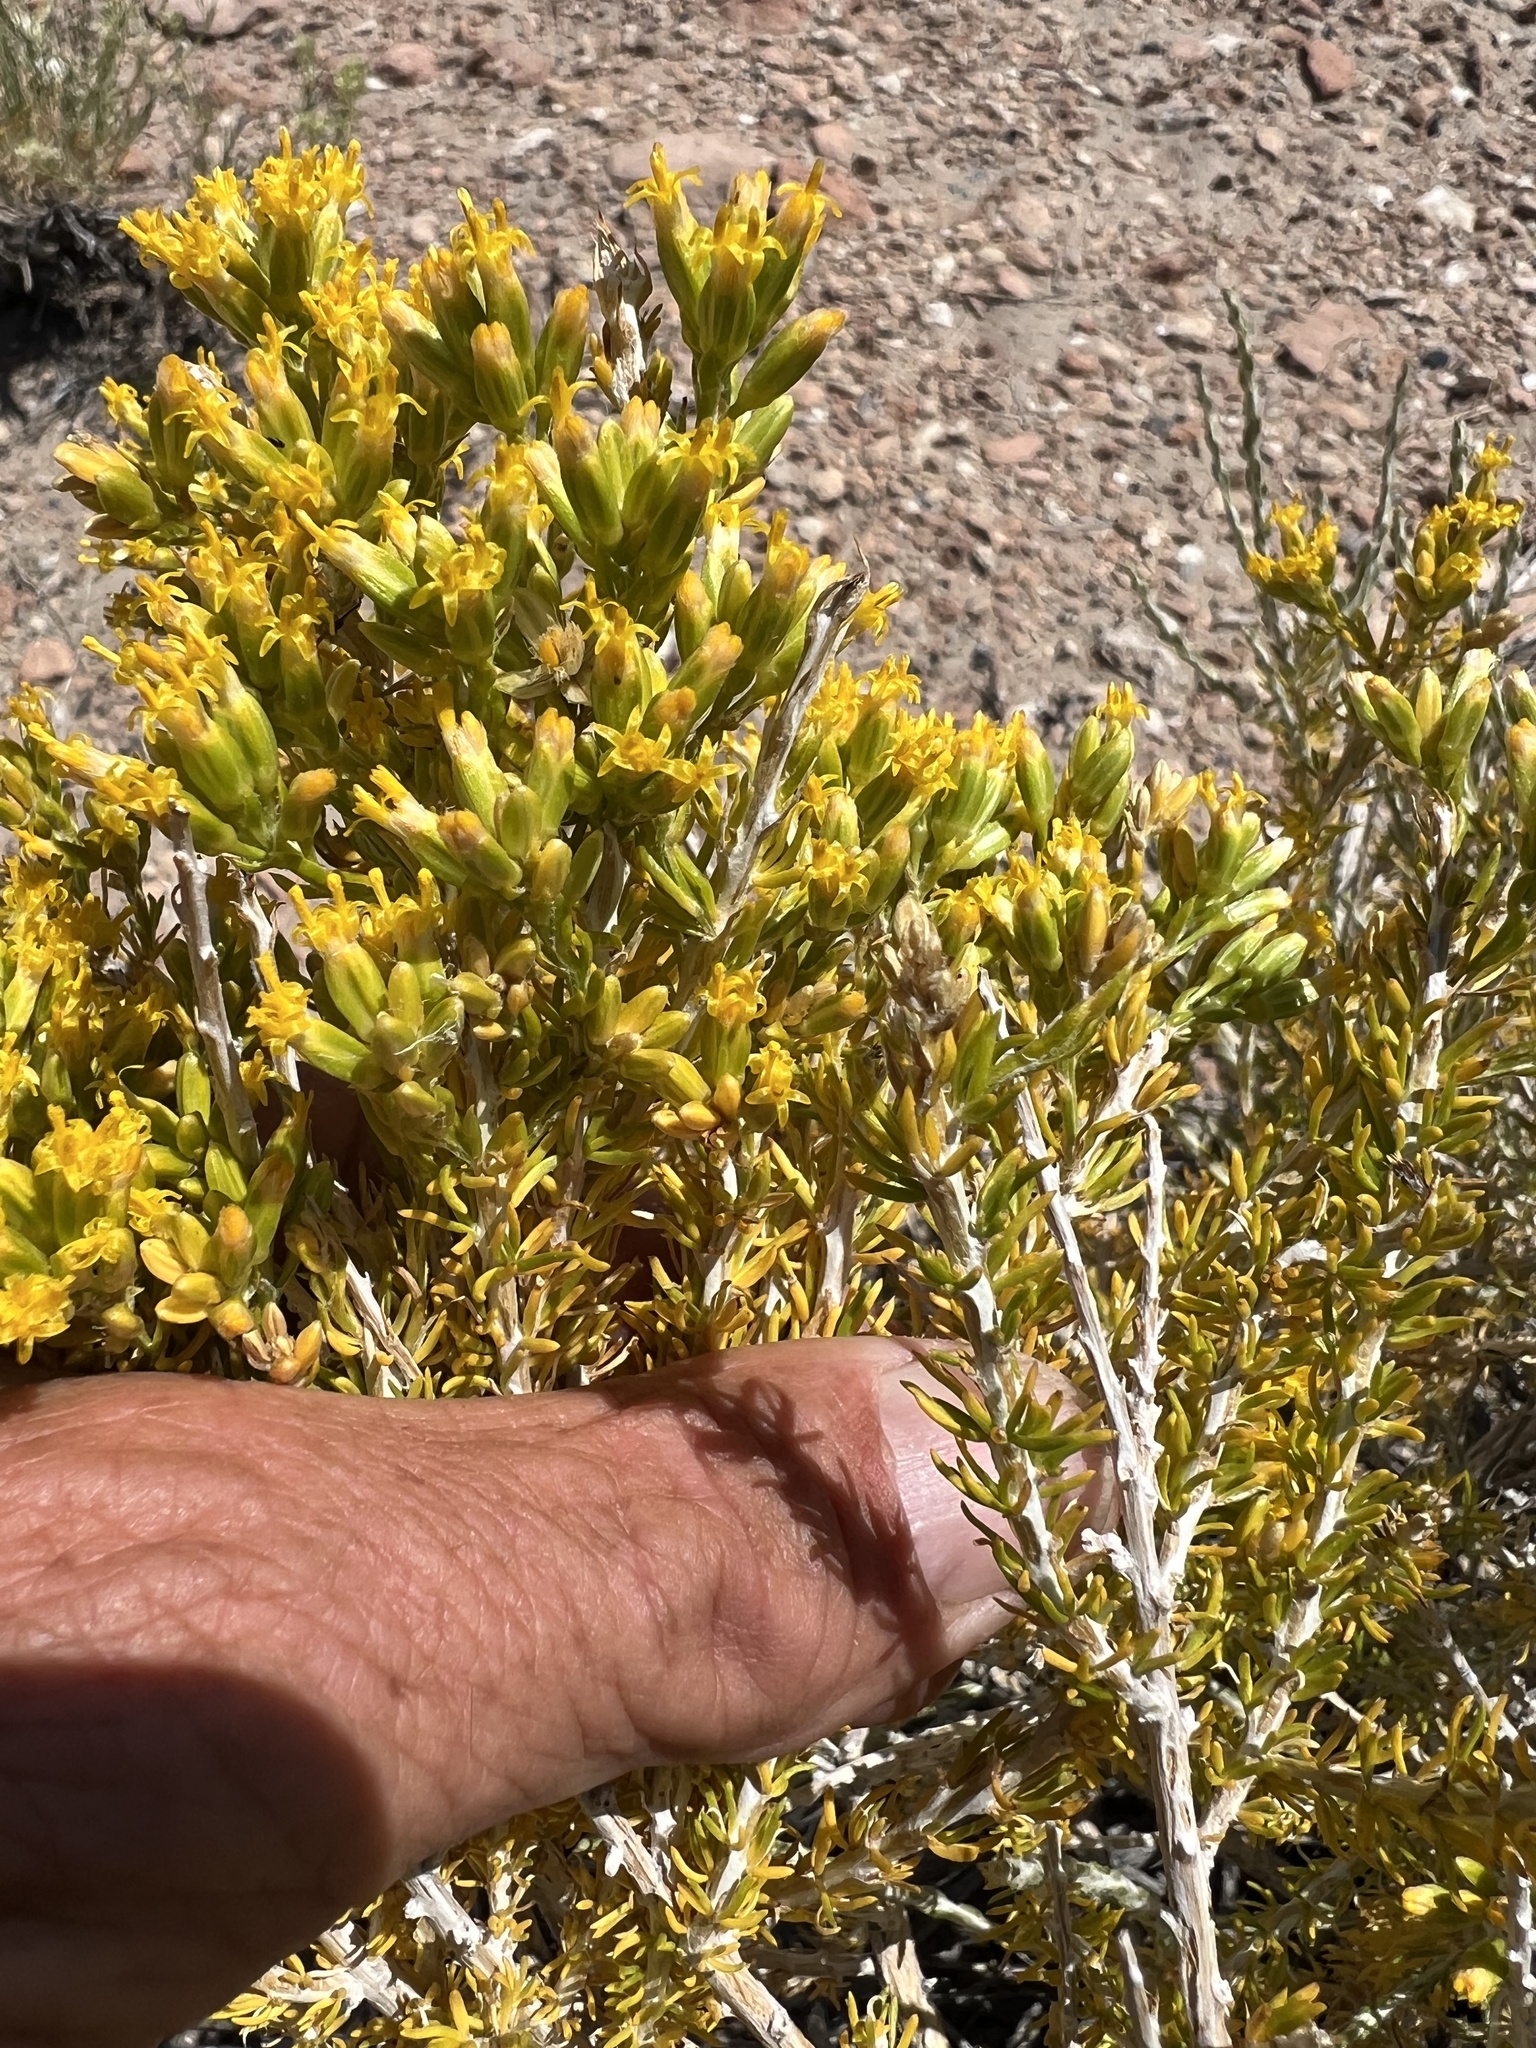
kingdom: Plantae
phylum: Tracheophyta
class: Magnoliopsida
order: Asterales
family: Asteraceae
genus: Tetradymia
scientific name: Tetradymia glabrata
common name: Smooth tetradymia
